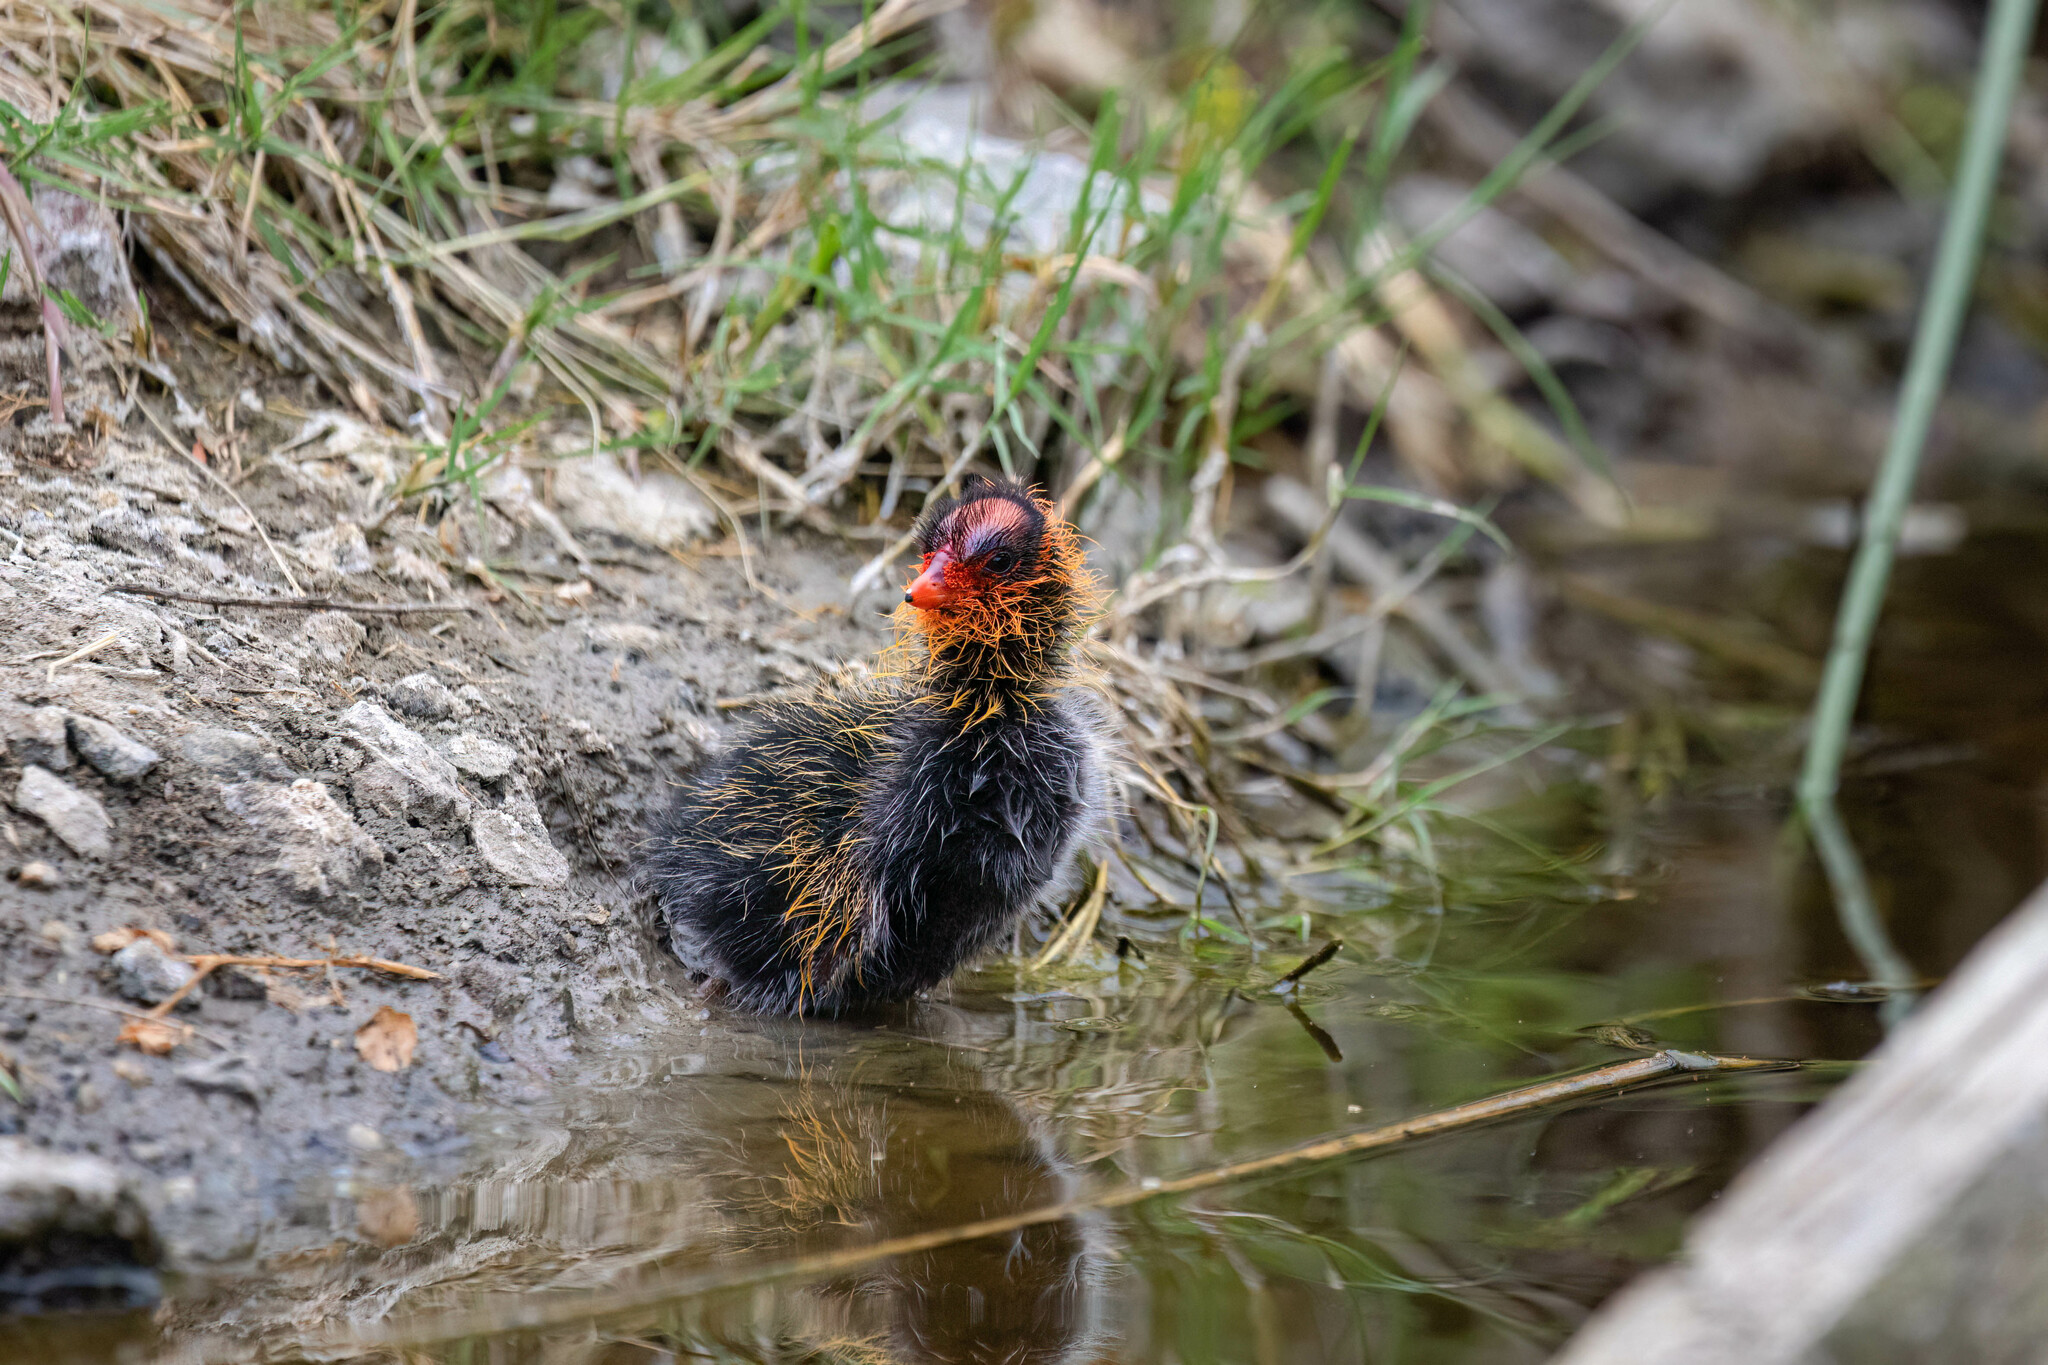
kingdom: Animalia
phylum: Chordata
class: Aves
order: Gruiformes
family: Rallidae
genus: Fulica
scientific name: Fulica americana
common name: American coot
